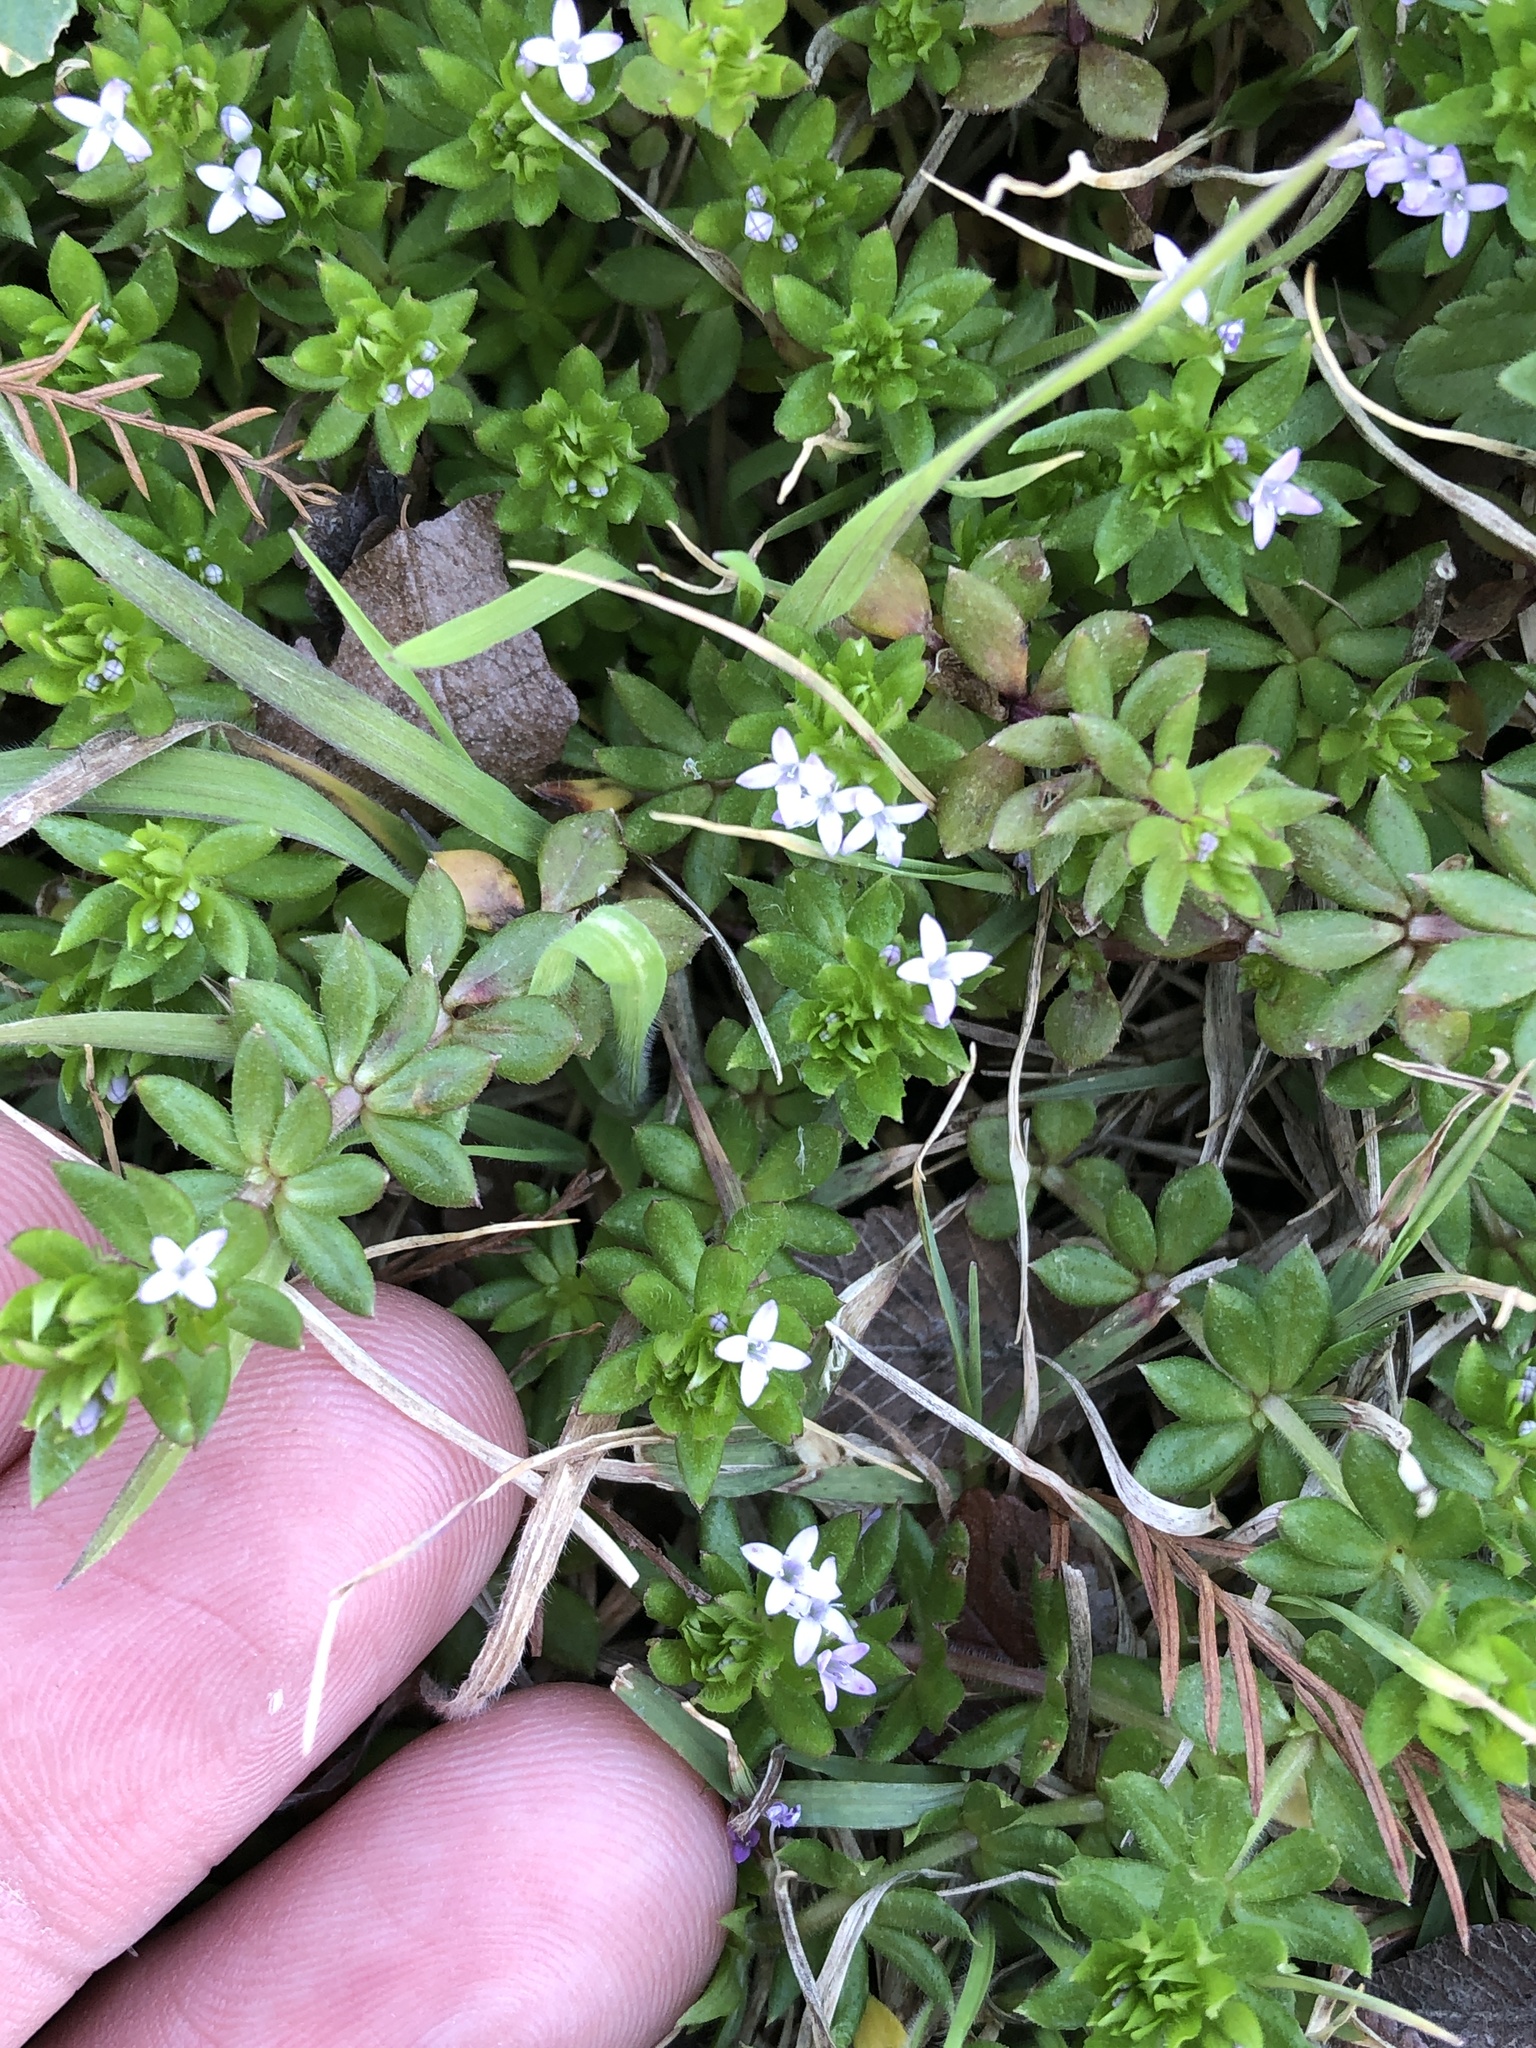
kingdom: Plantae
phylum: Tracheophyta
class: Magnoliopsida
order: Gentianales
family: Rubiaceae
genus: Sherardia
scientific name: Sherardia arvensis
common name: Field madder
